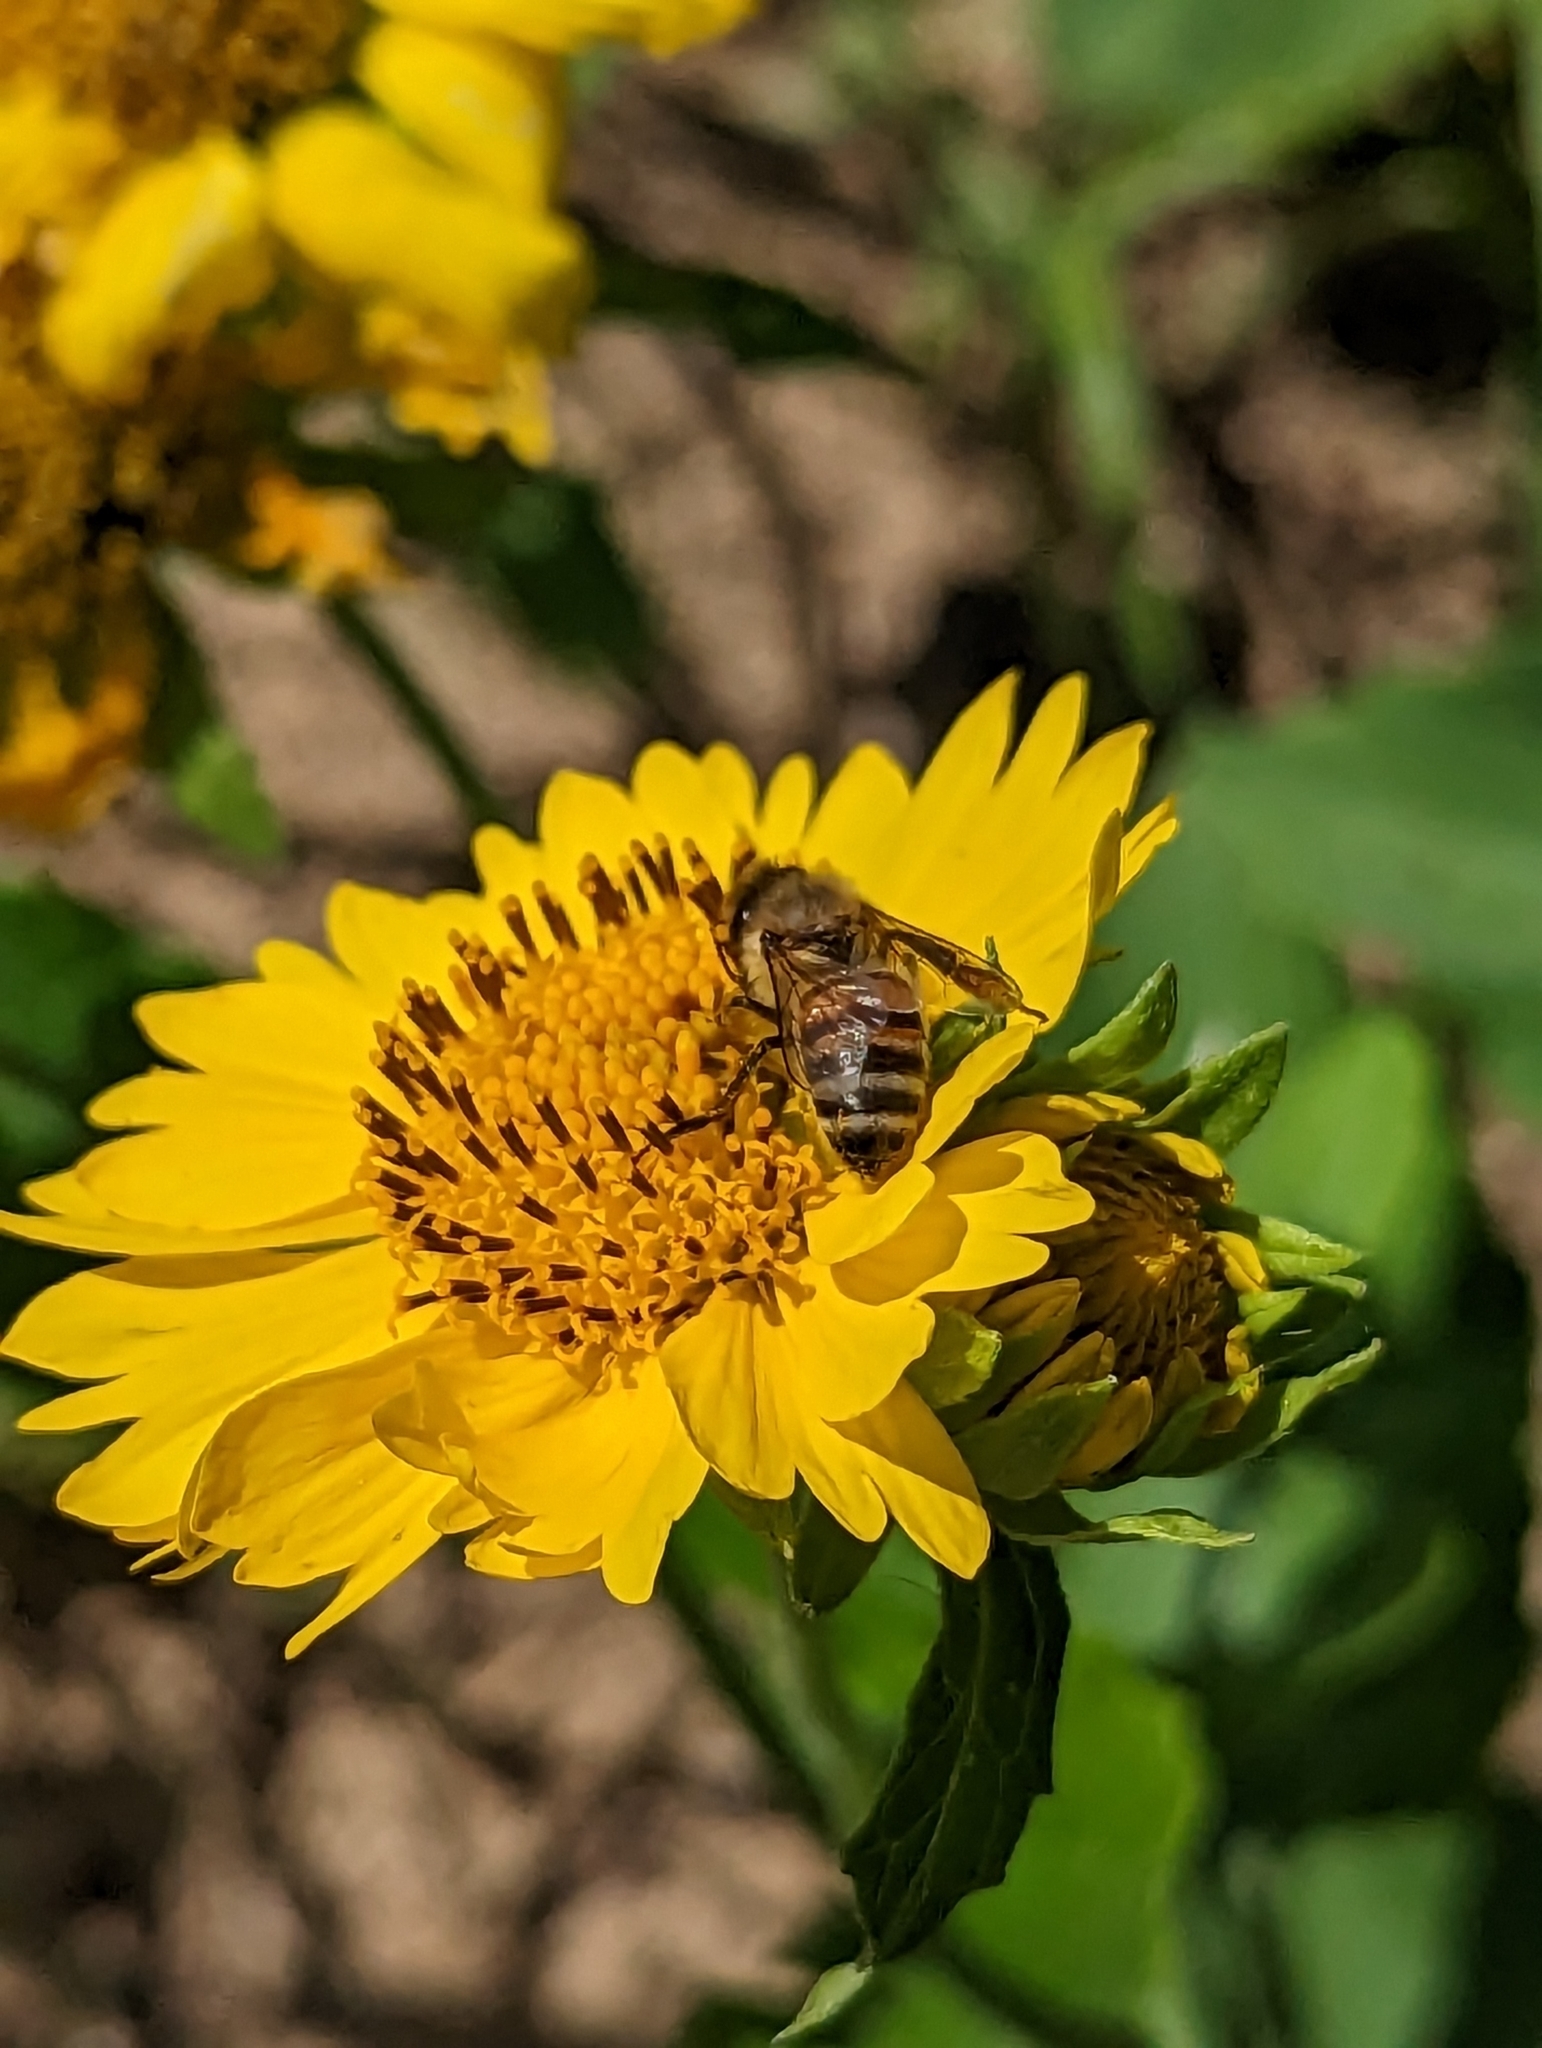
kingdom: Animalia
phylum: Arthropoda
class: Insecta
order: Hymenoptera
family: Apidae
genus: Apis
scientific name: Apis mellifera
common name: Honey bee
